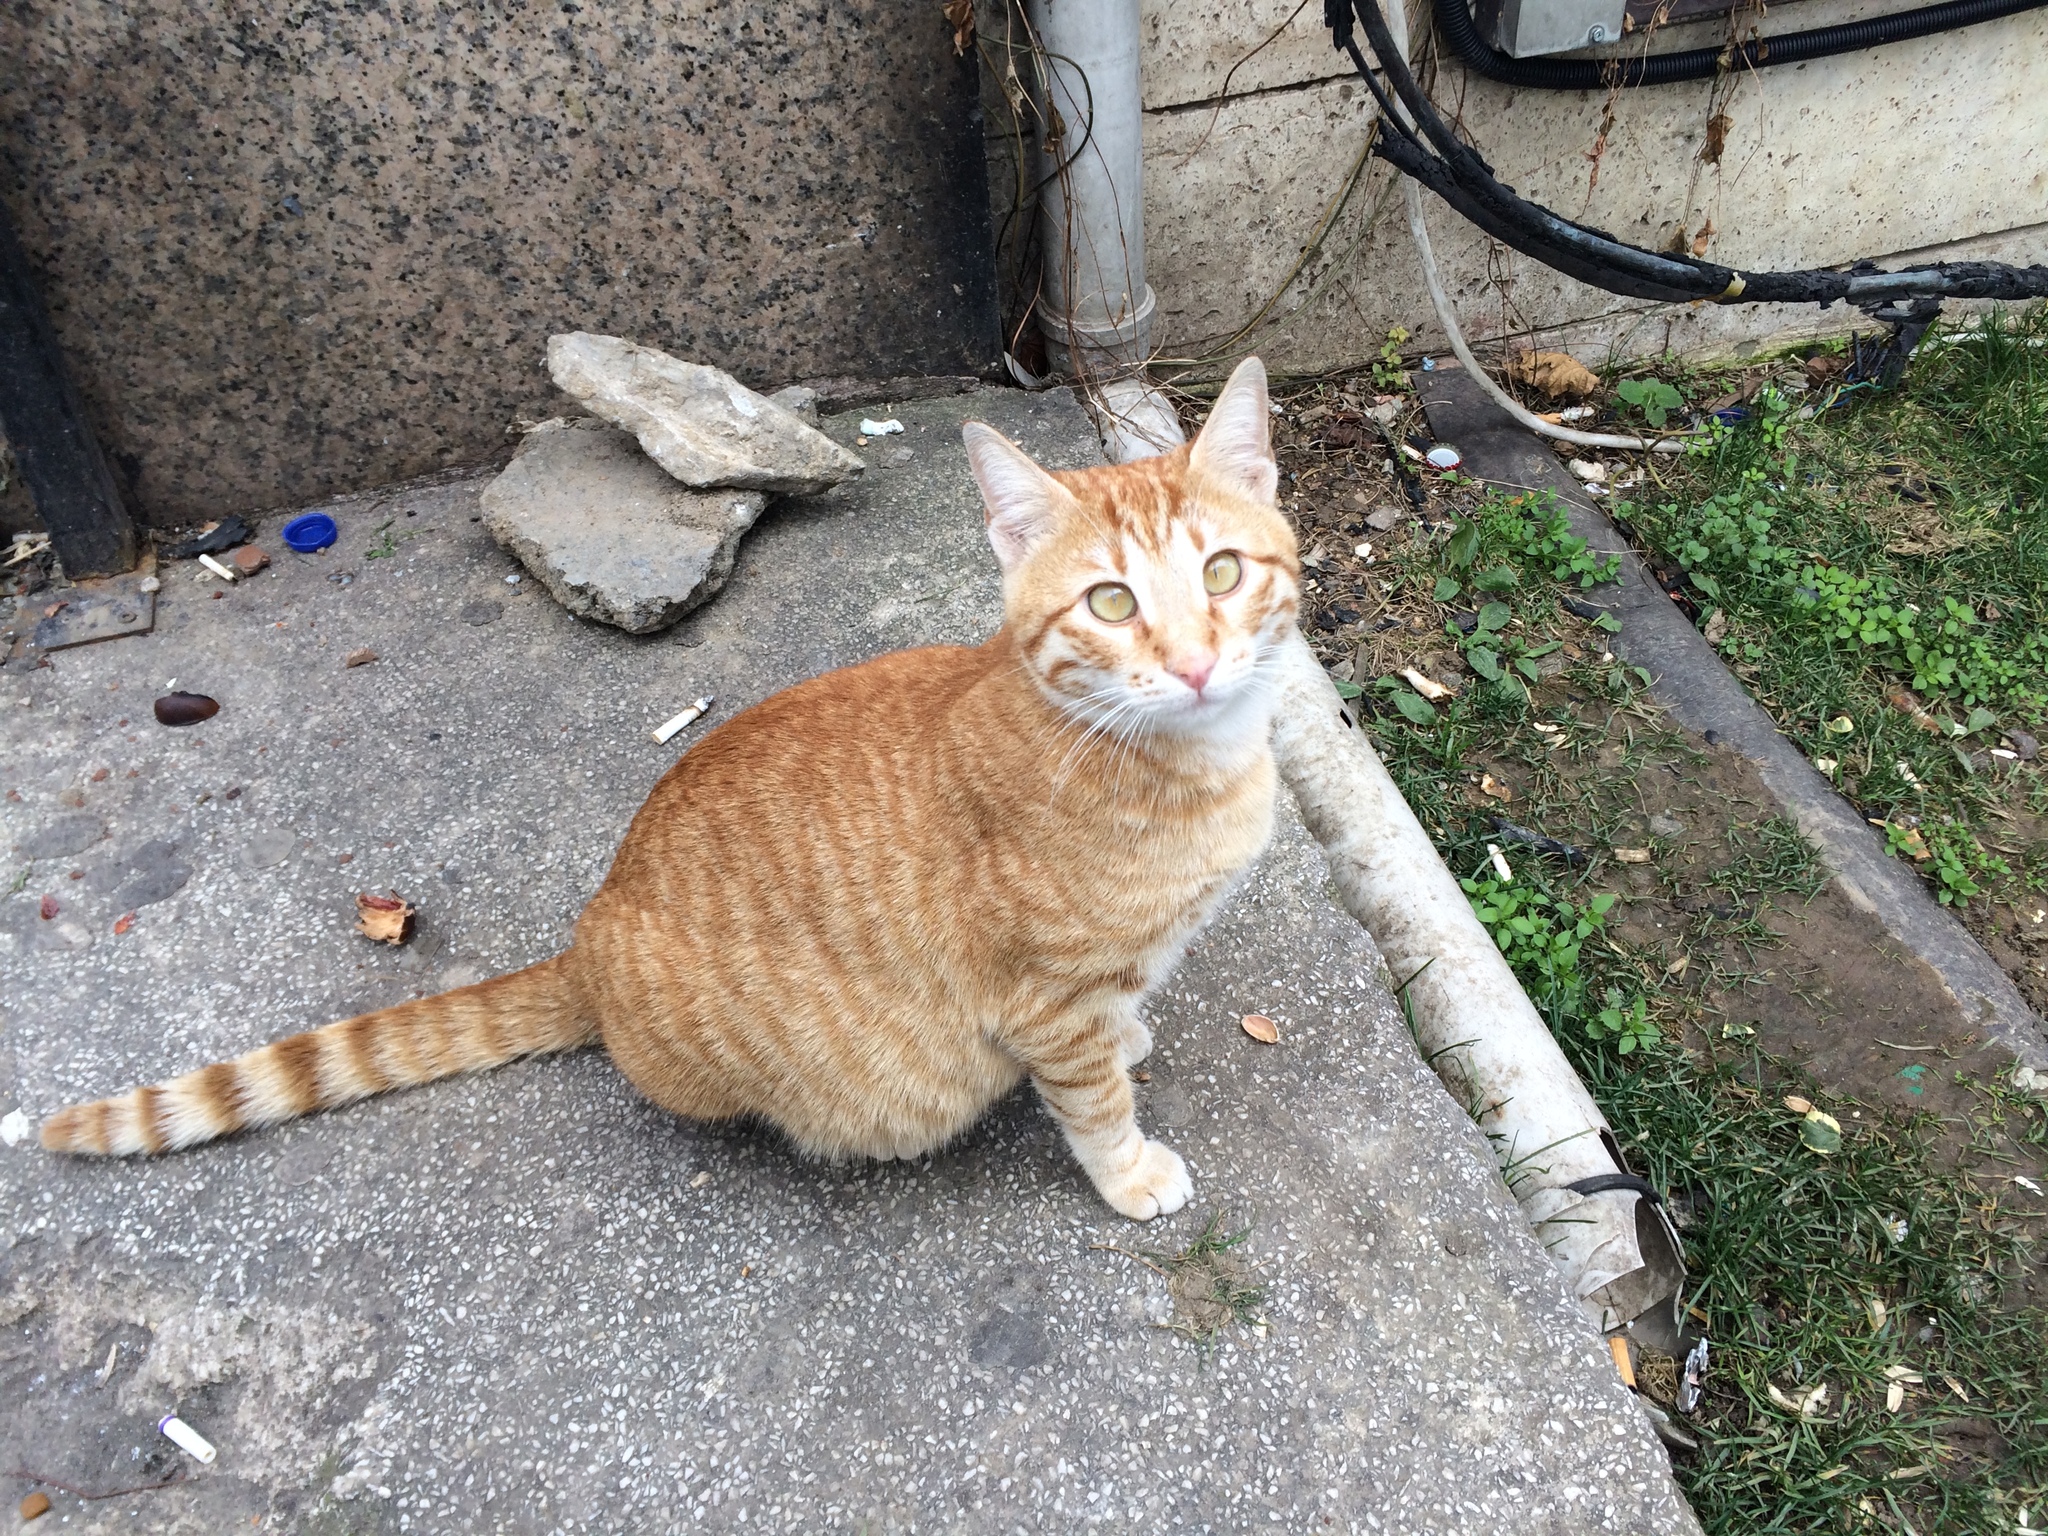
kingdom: Animalia
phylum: Chordata
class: Mammalia
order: Carnivora
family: Felidae
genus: Felis
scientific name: Felis catus
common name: Domestic cat
